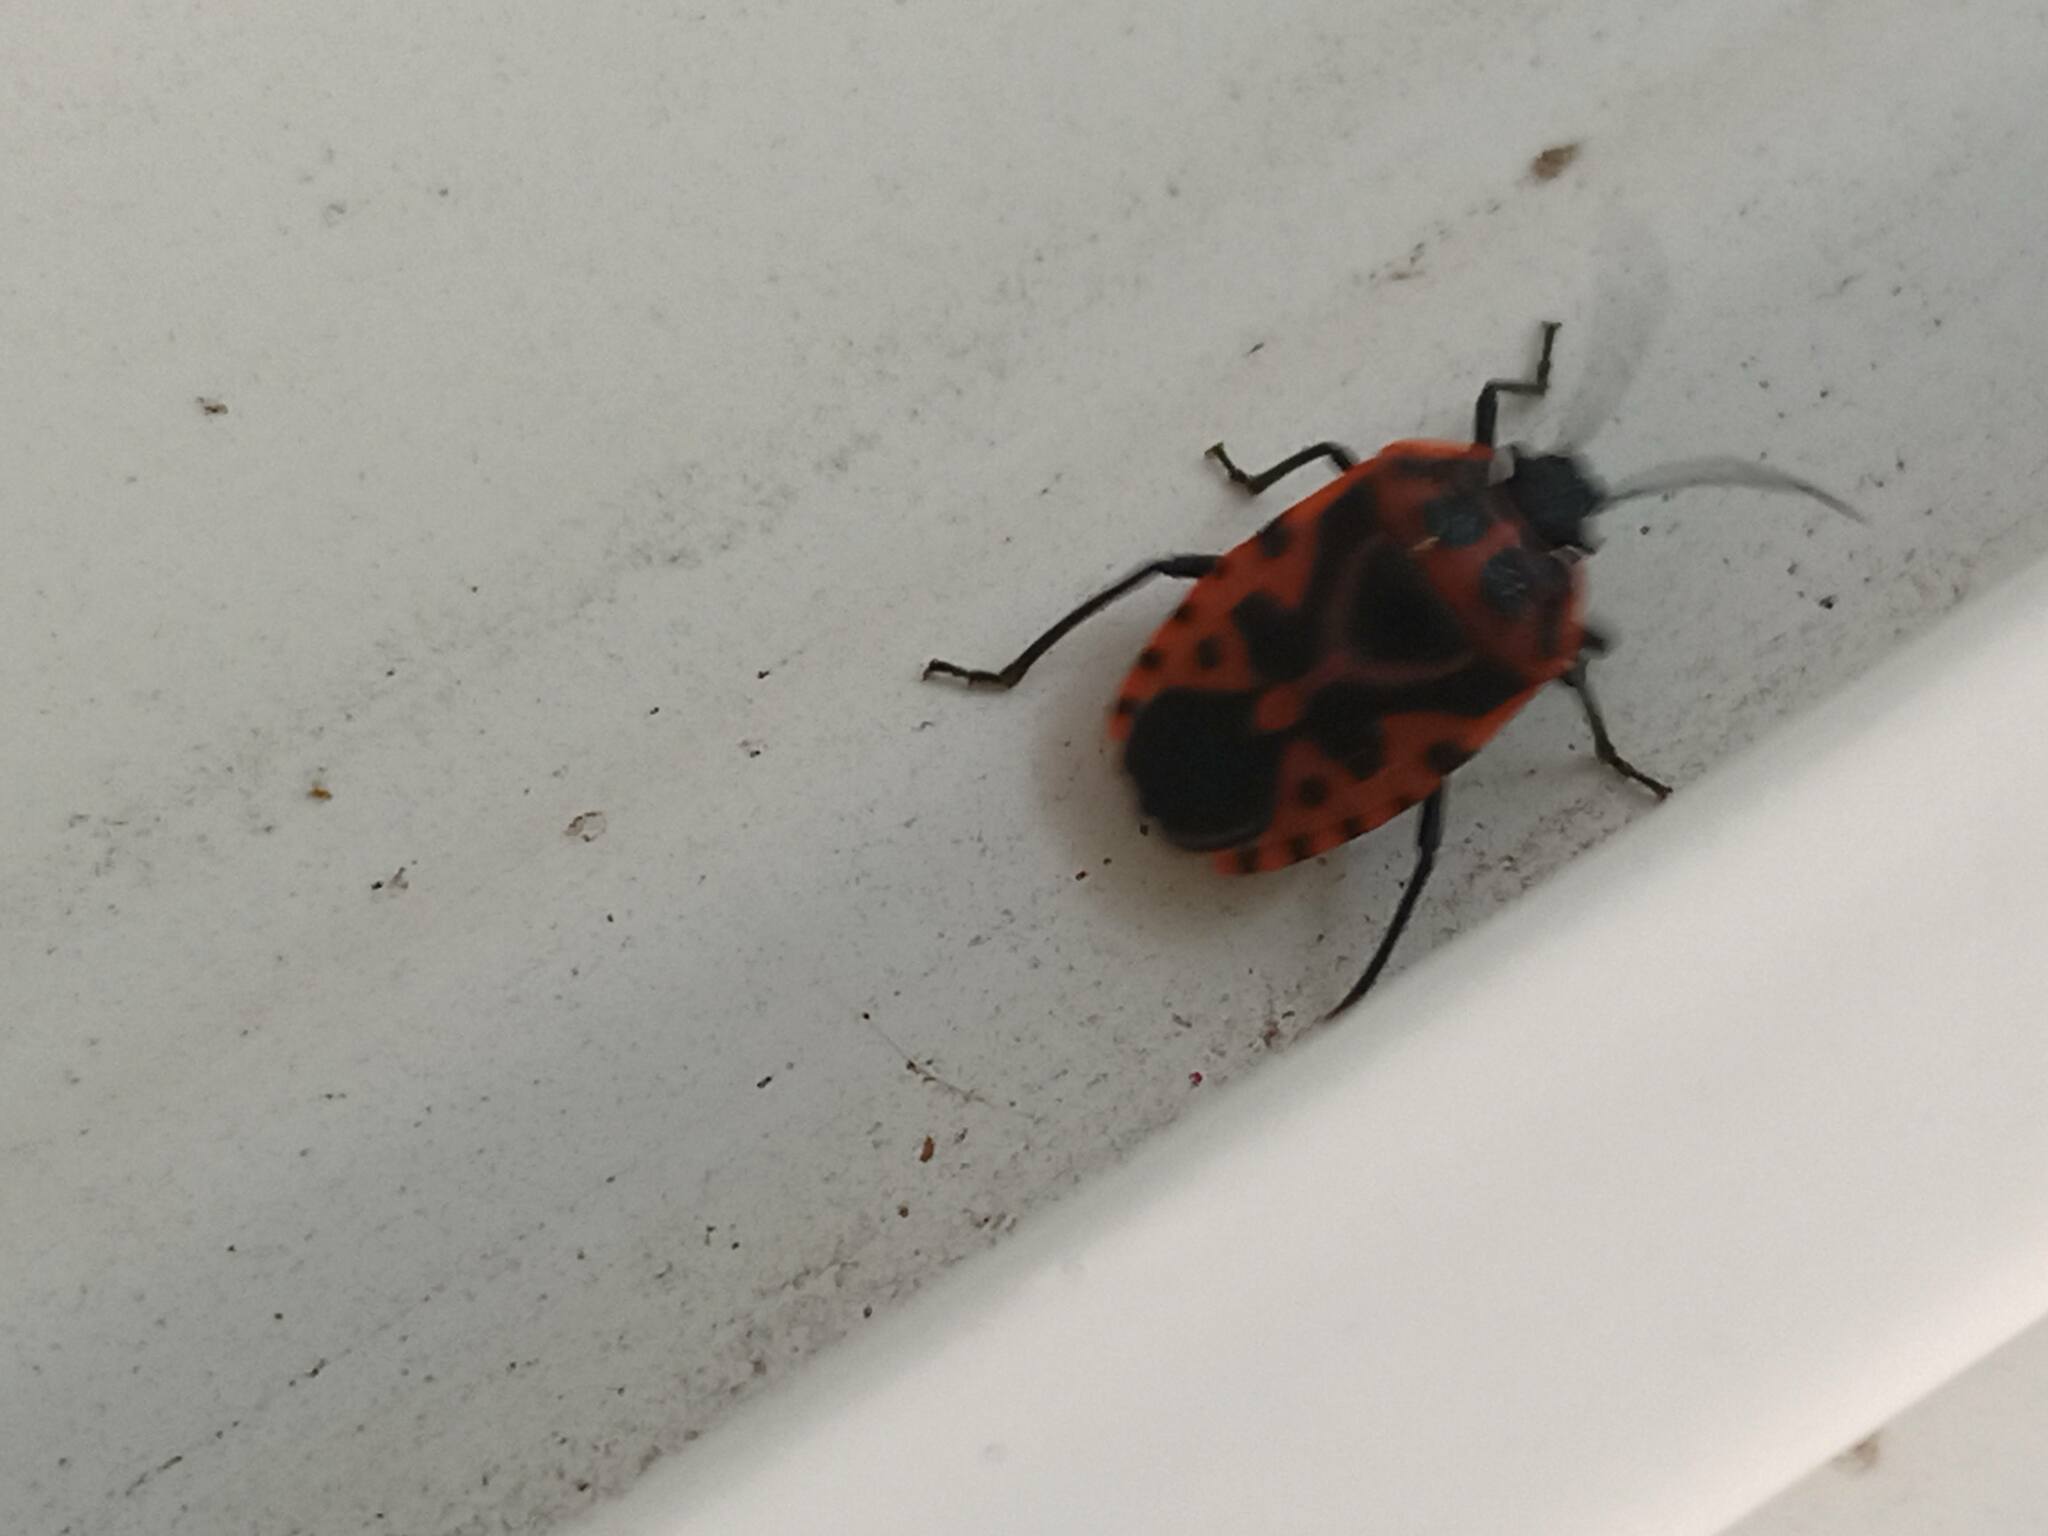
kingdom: Animalia
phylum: Arthropoda
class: Insecta
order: Hemiptera
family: Pentatomidae
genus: Eurydema
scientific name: Eurydema ventralis
